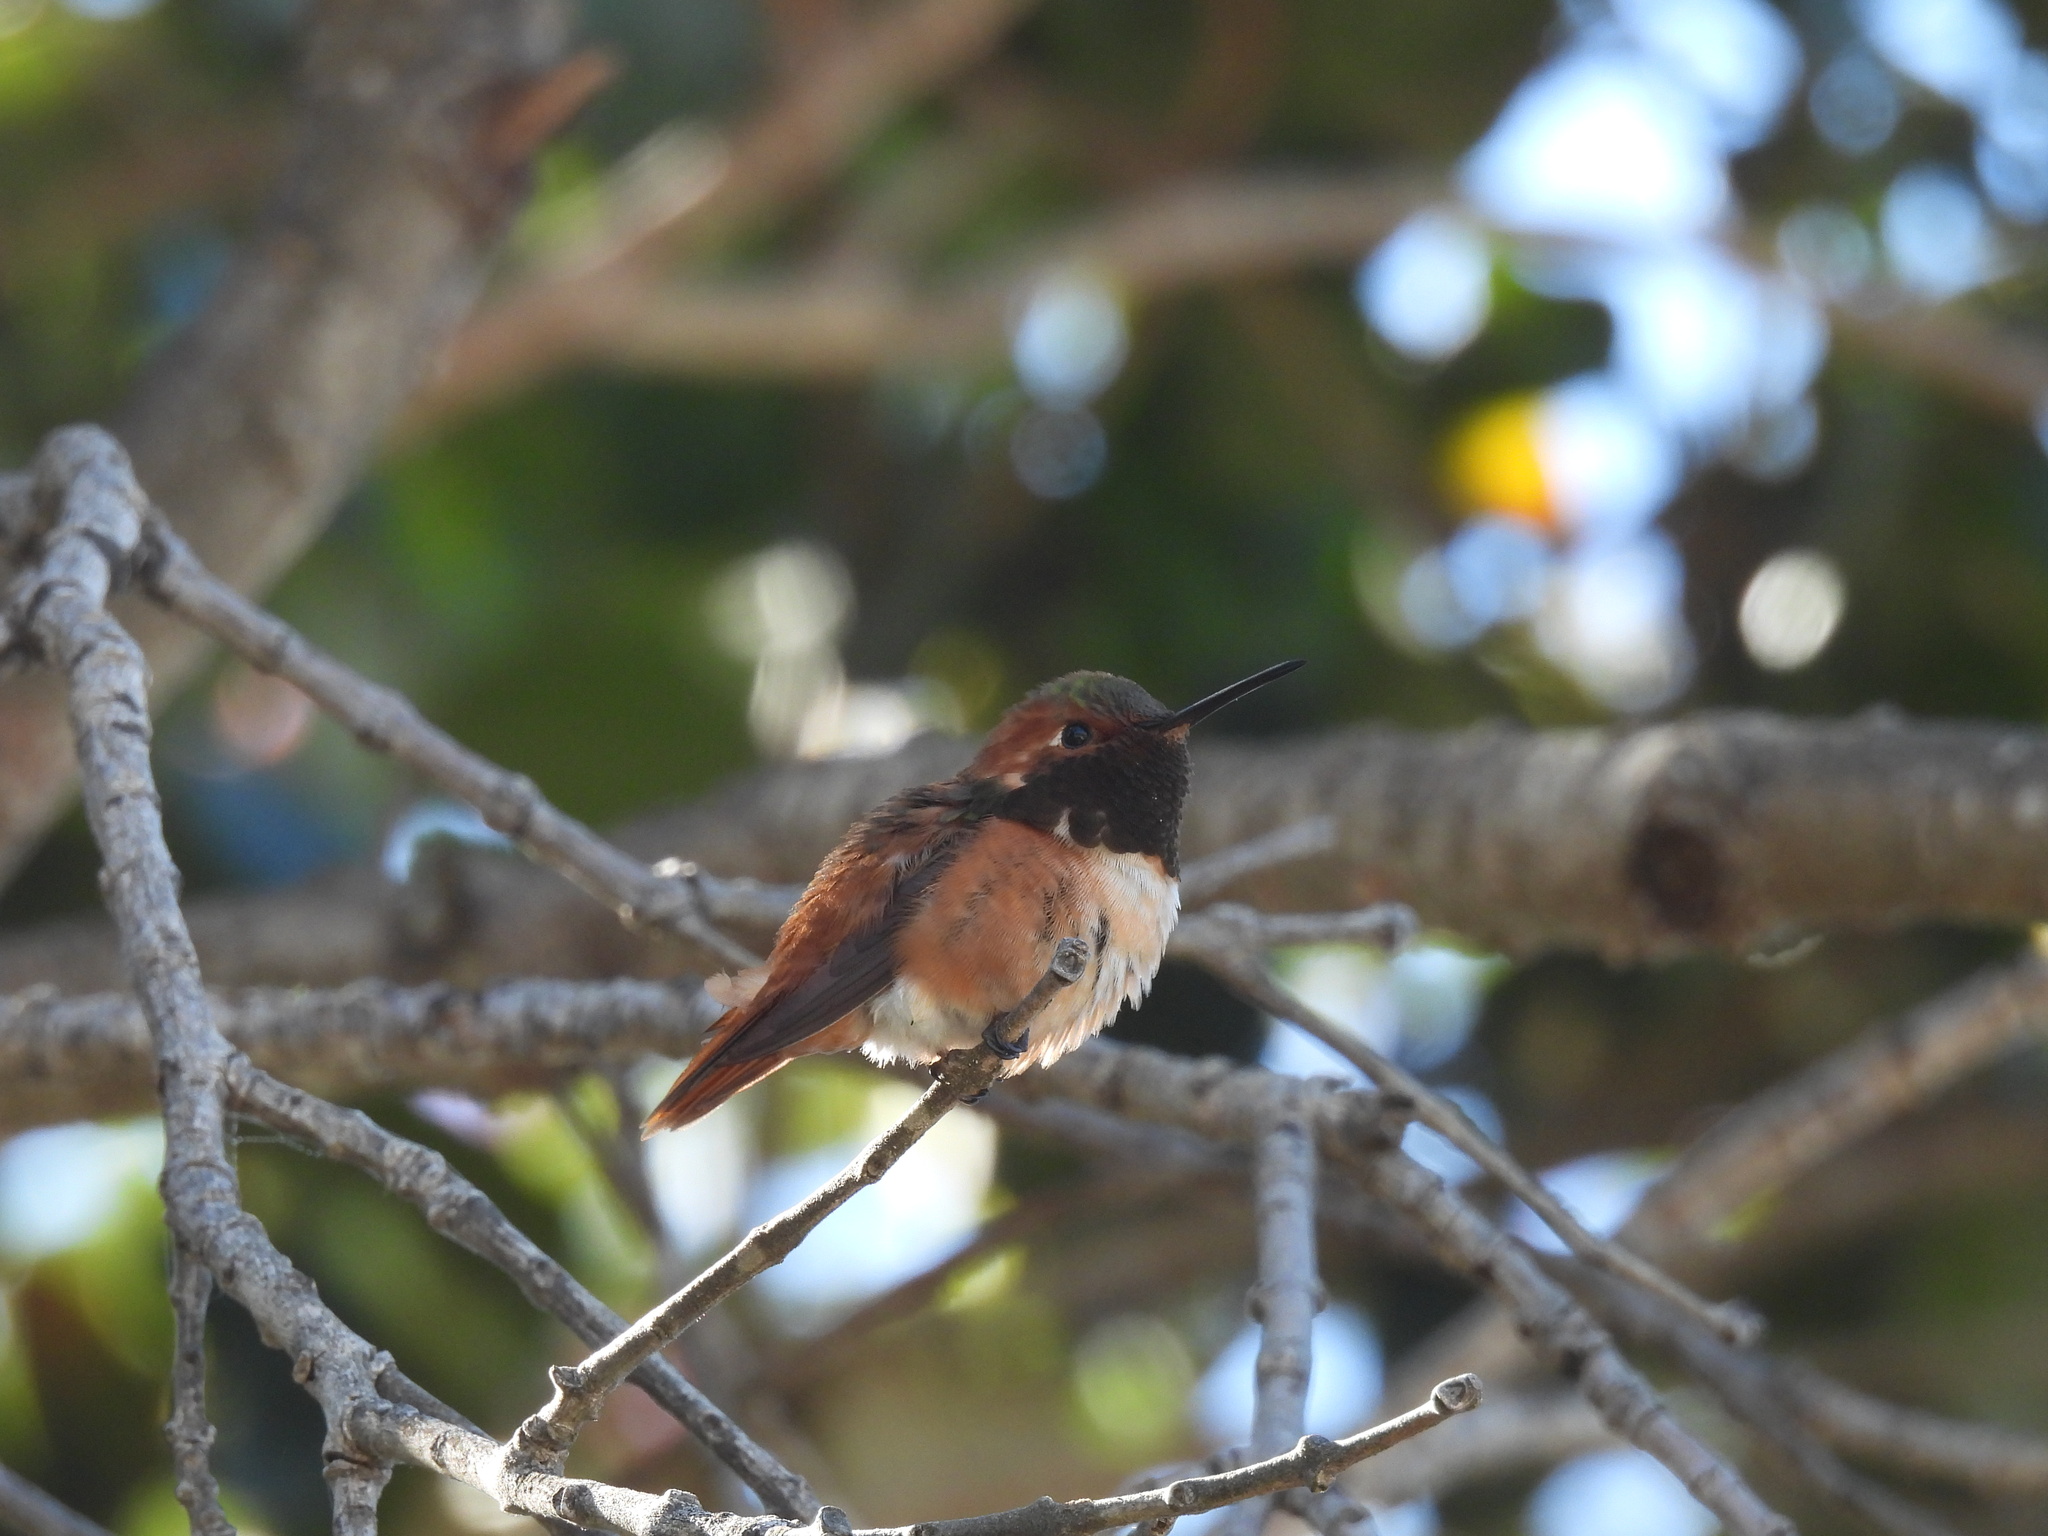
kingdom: Animalia
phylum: Chordata
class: Aves
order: Apodiformes
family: Trochilidae
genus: Selasphorus
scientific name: Selasphorus
